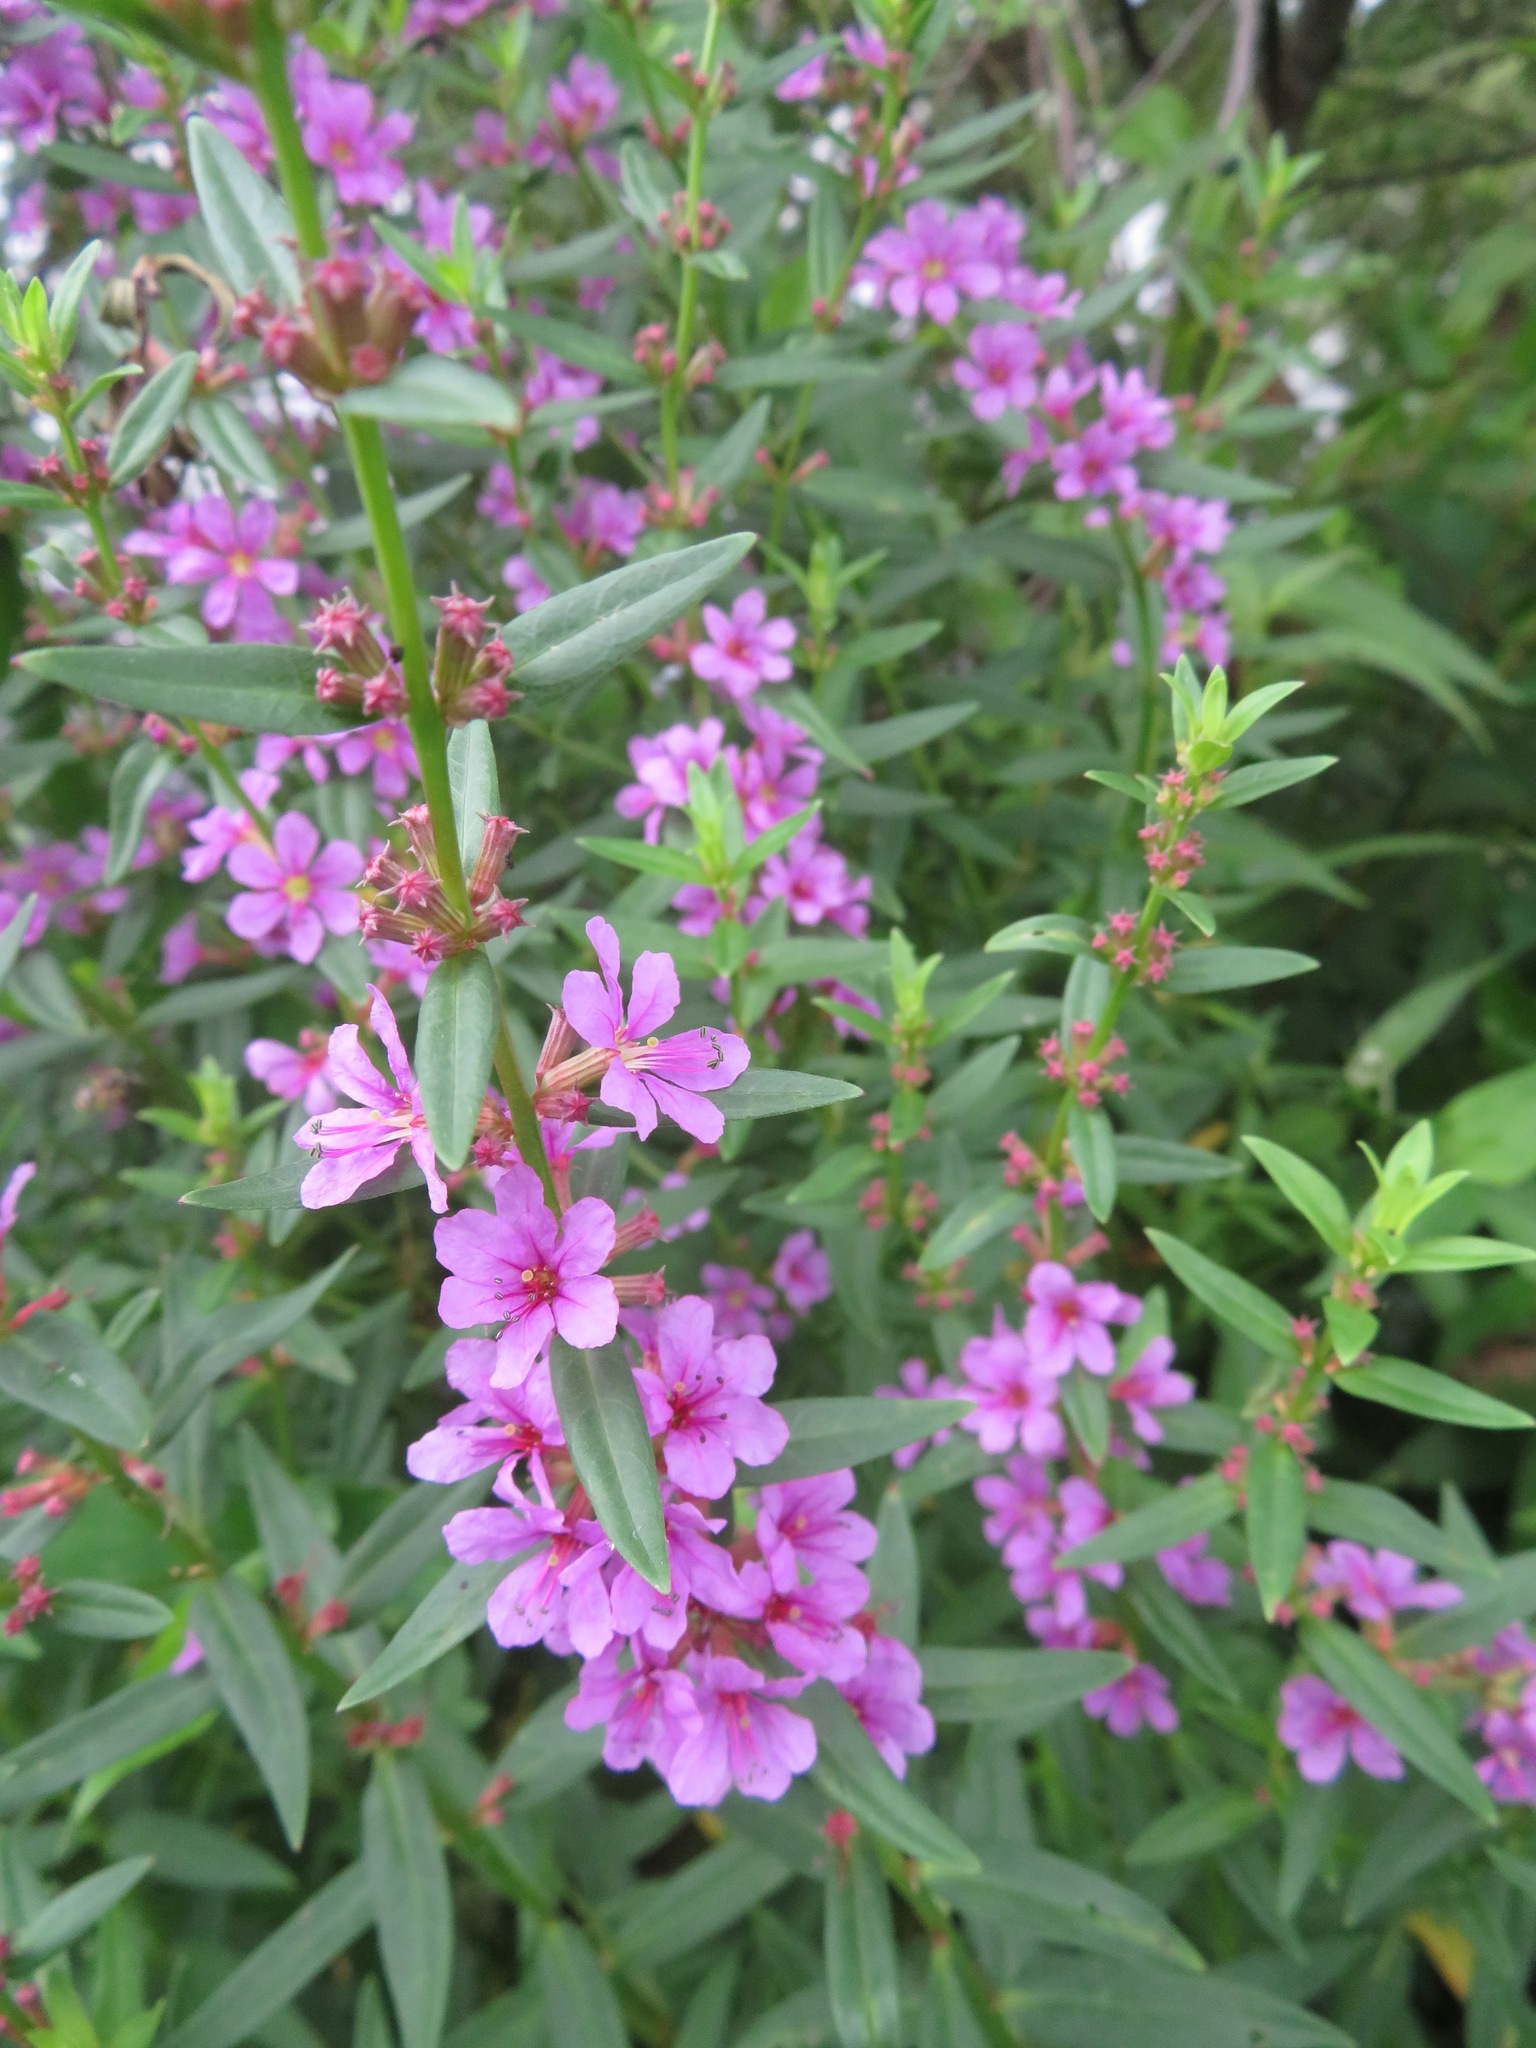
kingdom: Plantae
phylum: Tracheophyta
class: Magnoliopsida
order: Myrtales
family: Lythraceae
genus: Lythrum
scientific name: Lythrum salicaria
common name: Purple loosestrife
